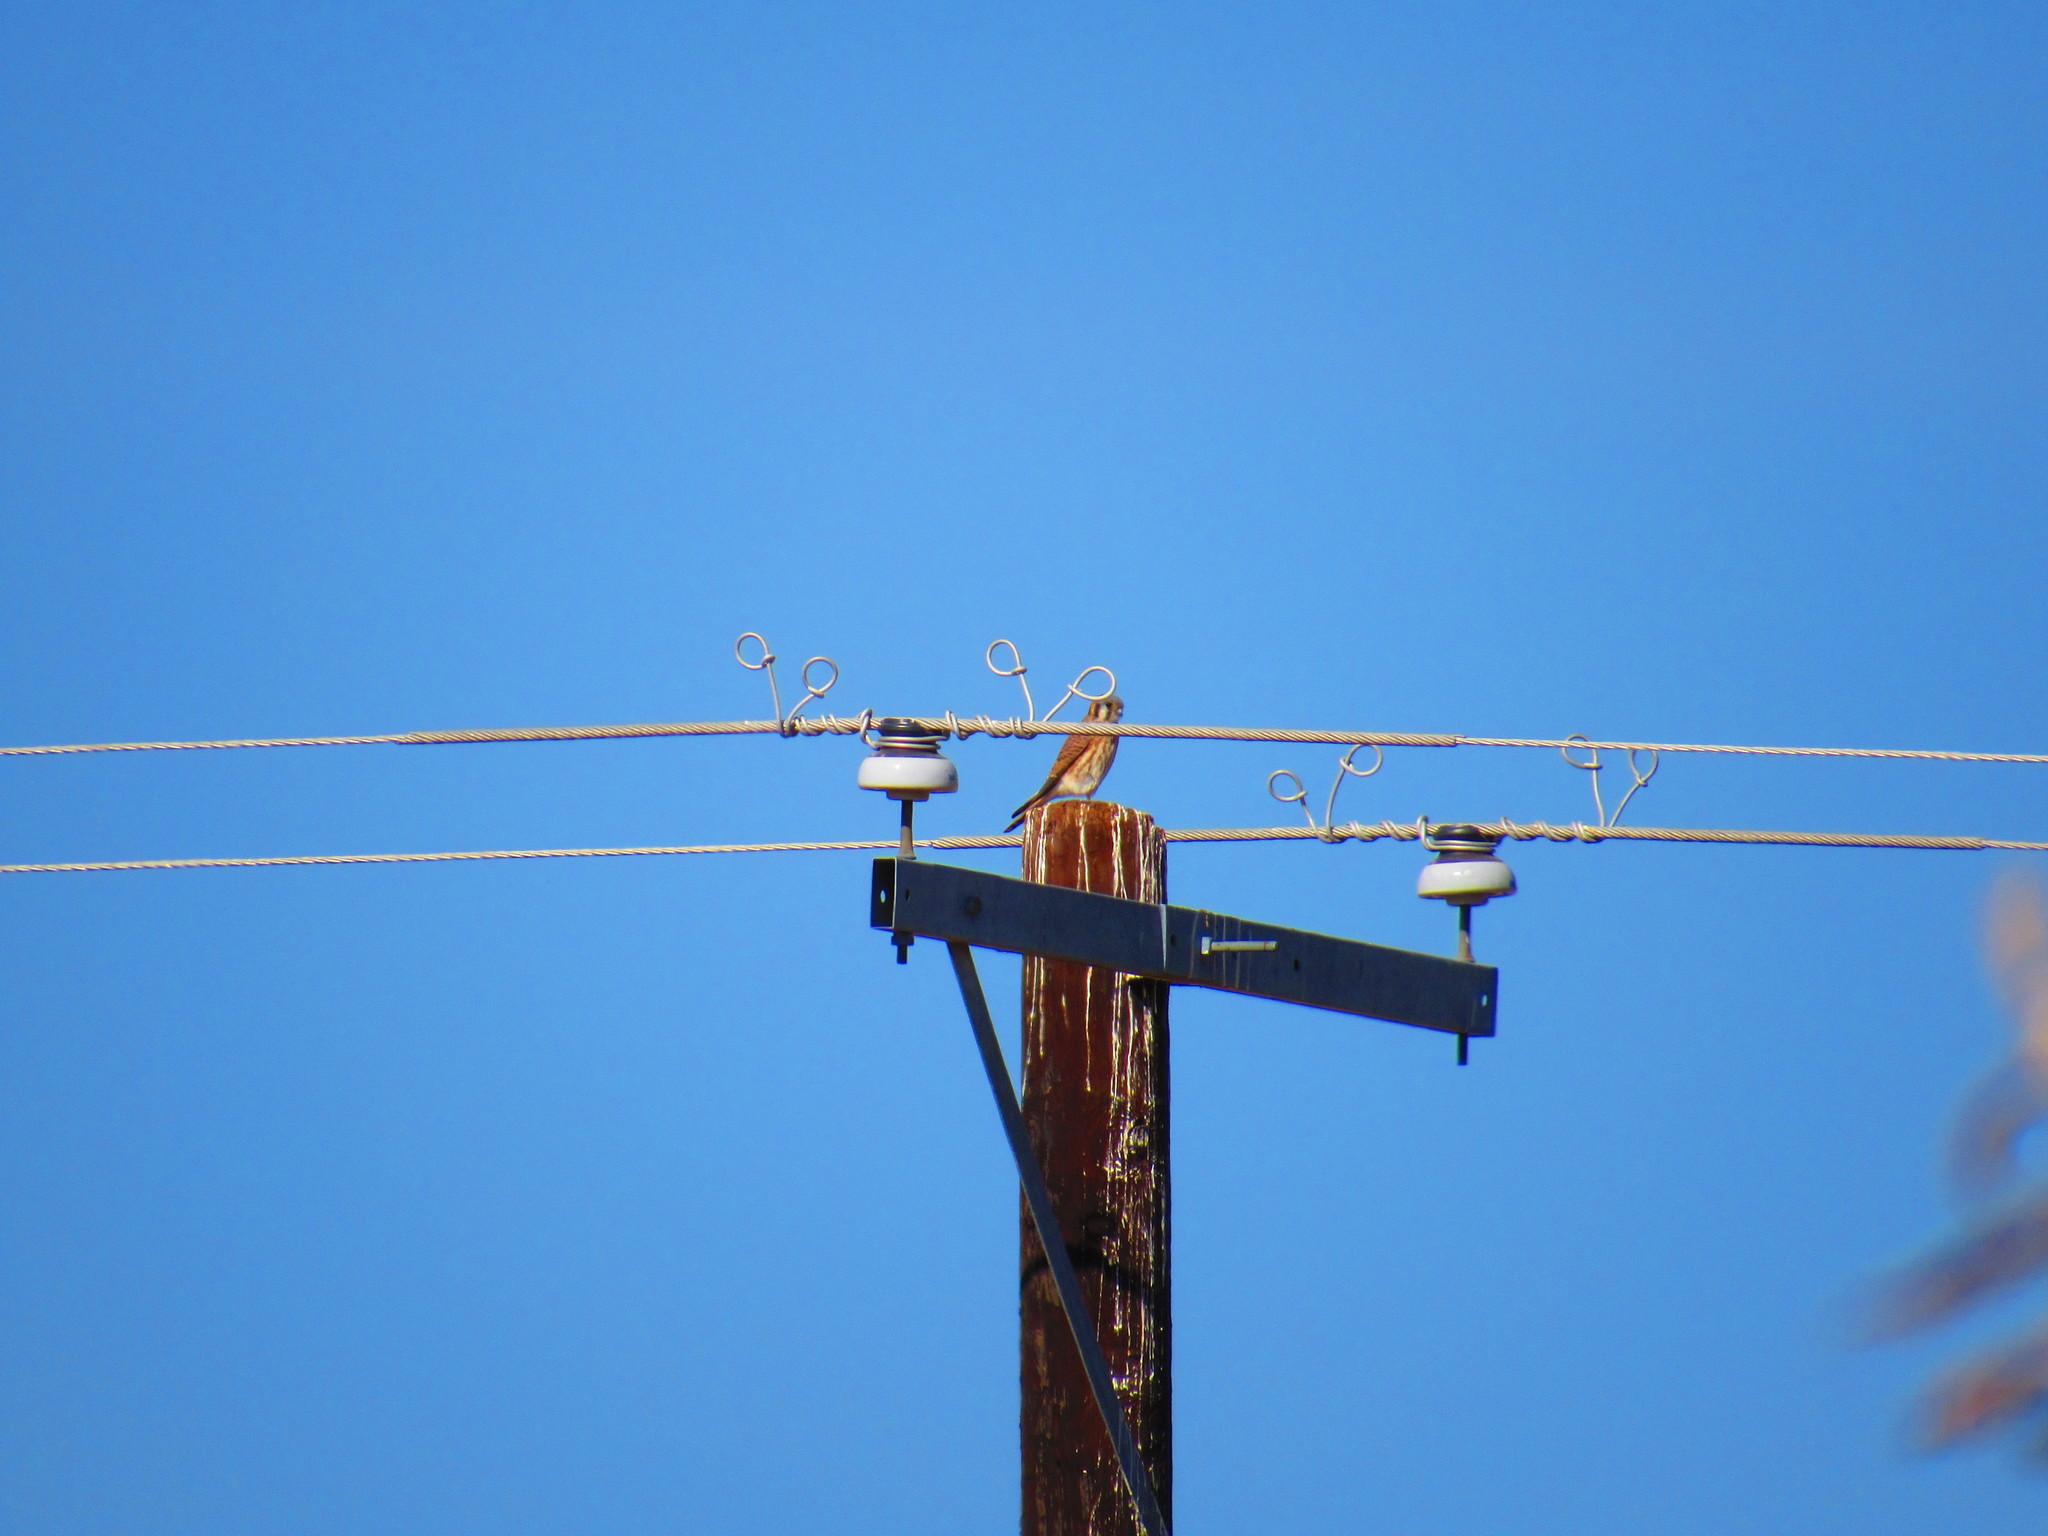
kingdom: Animalia
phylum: Chordata
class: Aves
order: Falconiformes
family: Falconidae
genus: Falco
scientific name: Falco sparverius
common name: American kestrel
